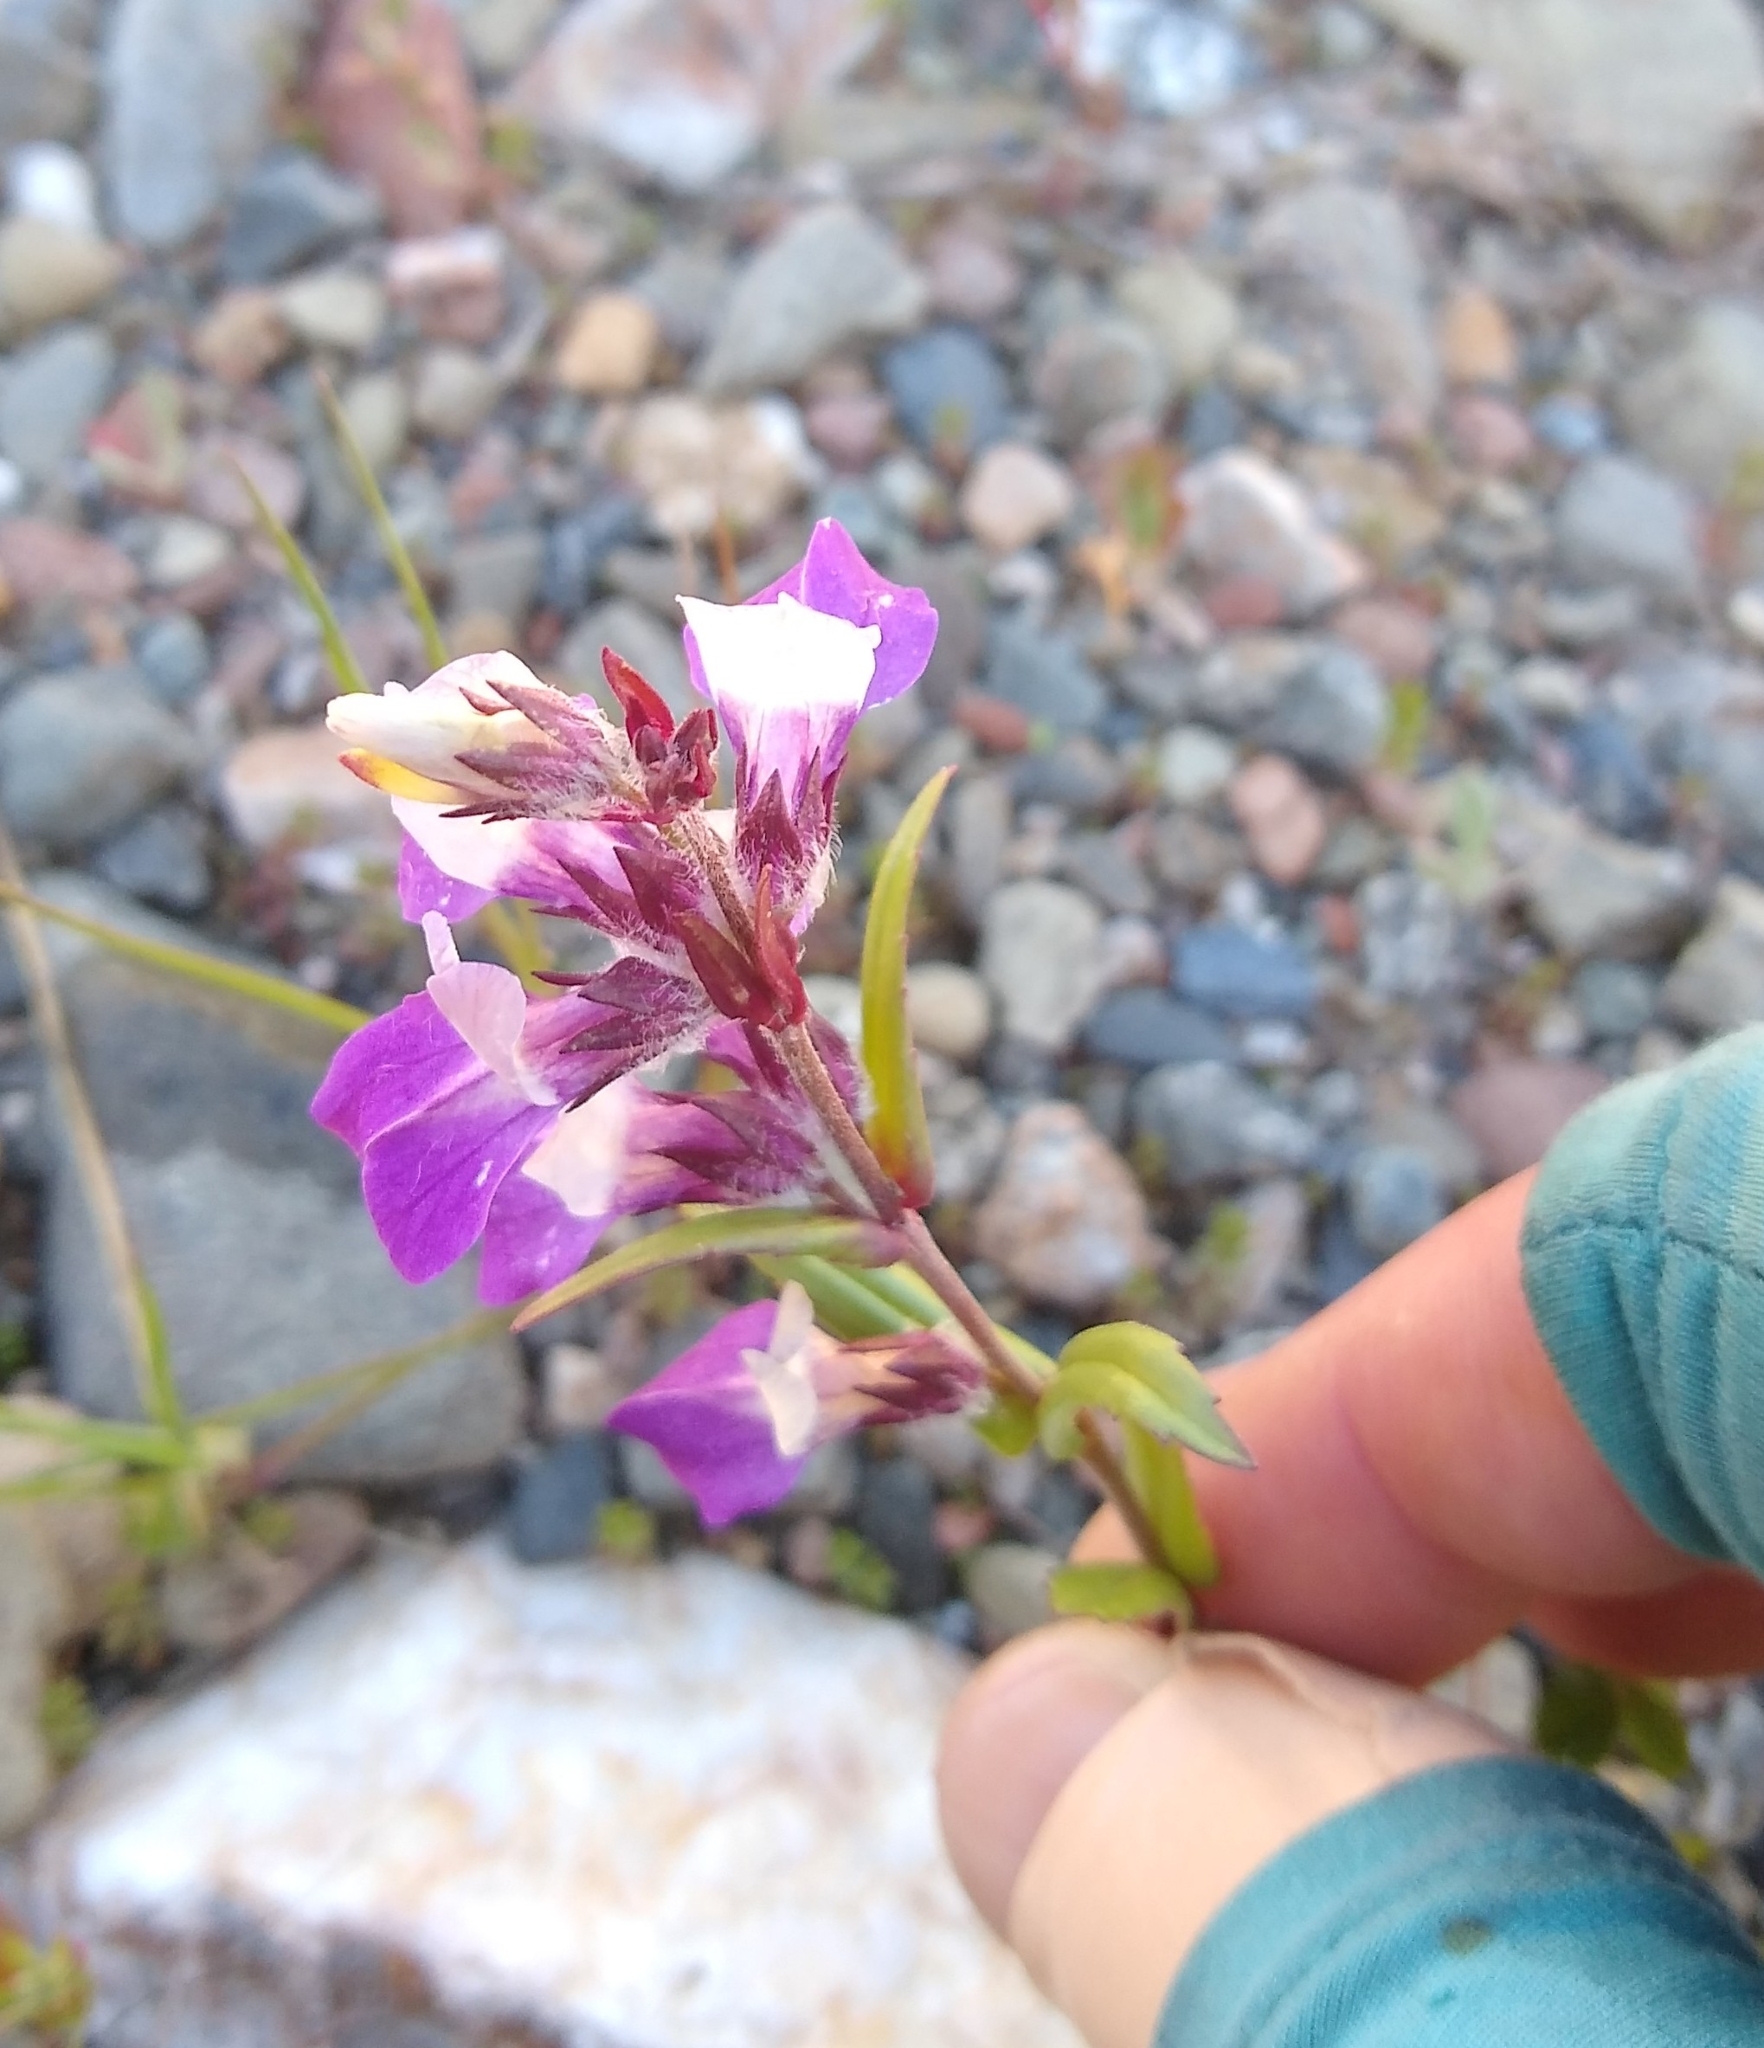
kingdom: Plantae
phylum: Tracheophyta
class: Magnoliopsida
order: Lamiales
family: Plantaginaceae
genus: Collinsia
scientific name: Collinsia heterophylla
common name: Chinese-houses
